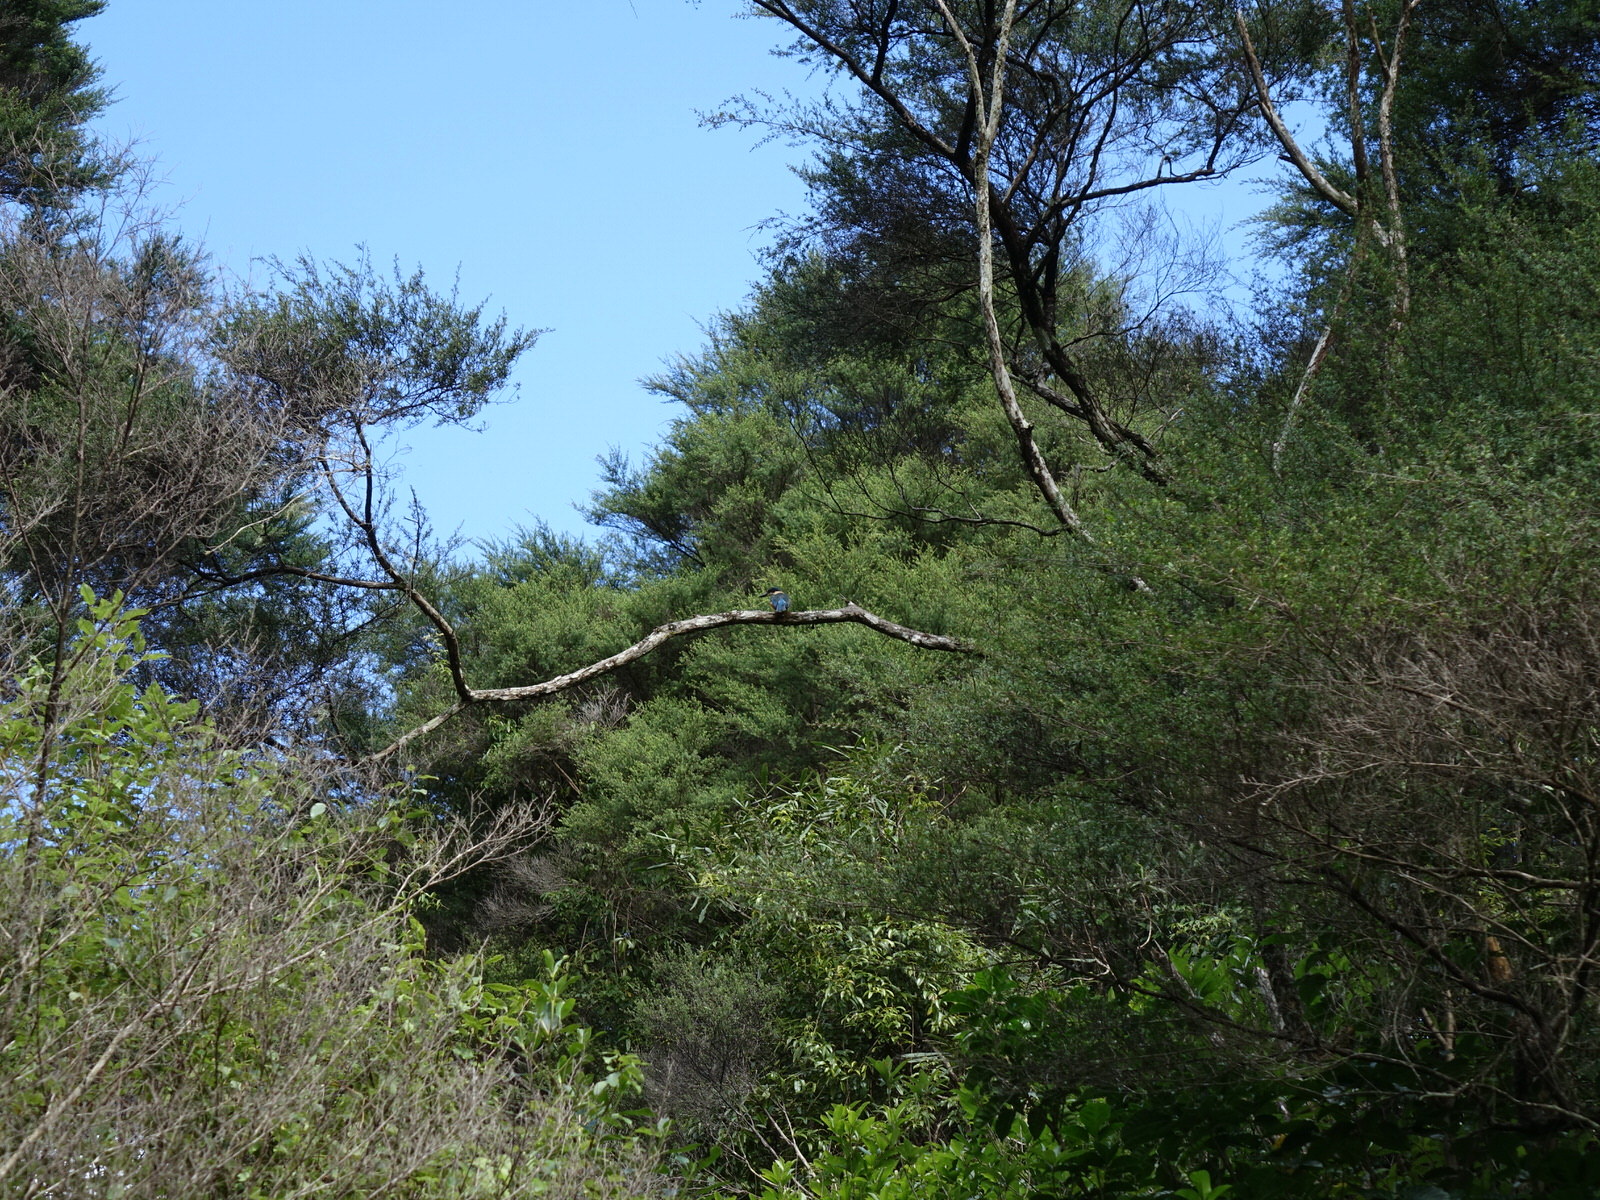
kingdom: Animalia
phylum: Chordata
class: Aves
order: Coraciiformes
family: Alcedinidae
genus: Todiramphus
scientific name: Todiramphus sanctus
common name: Sacred kingfisher
